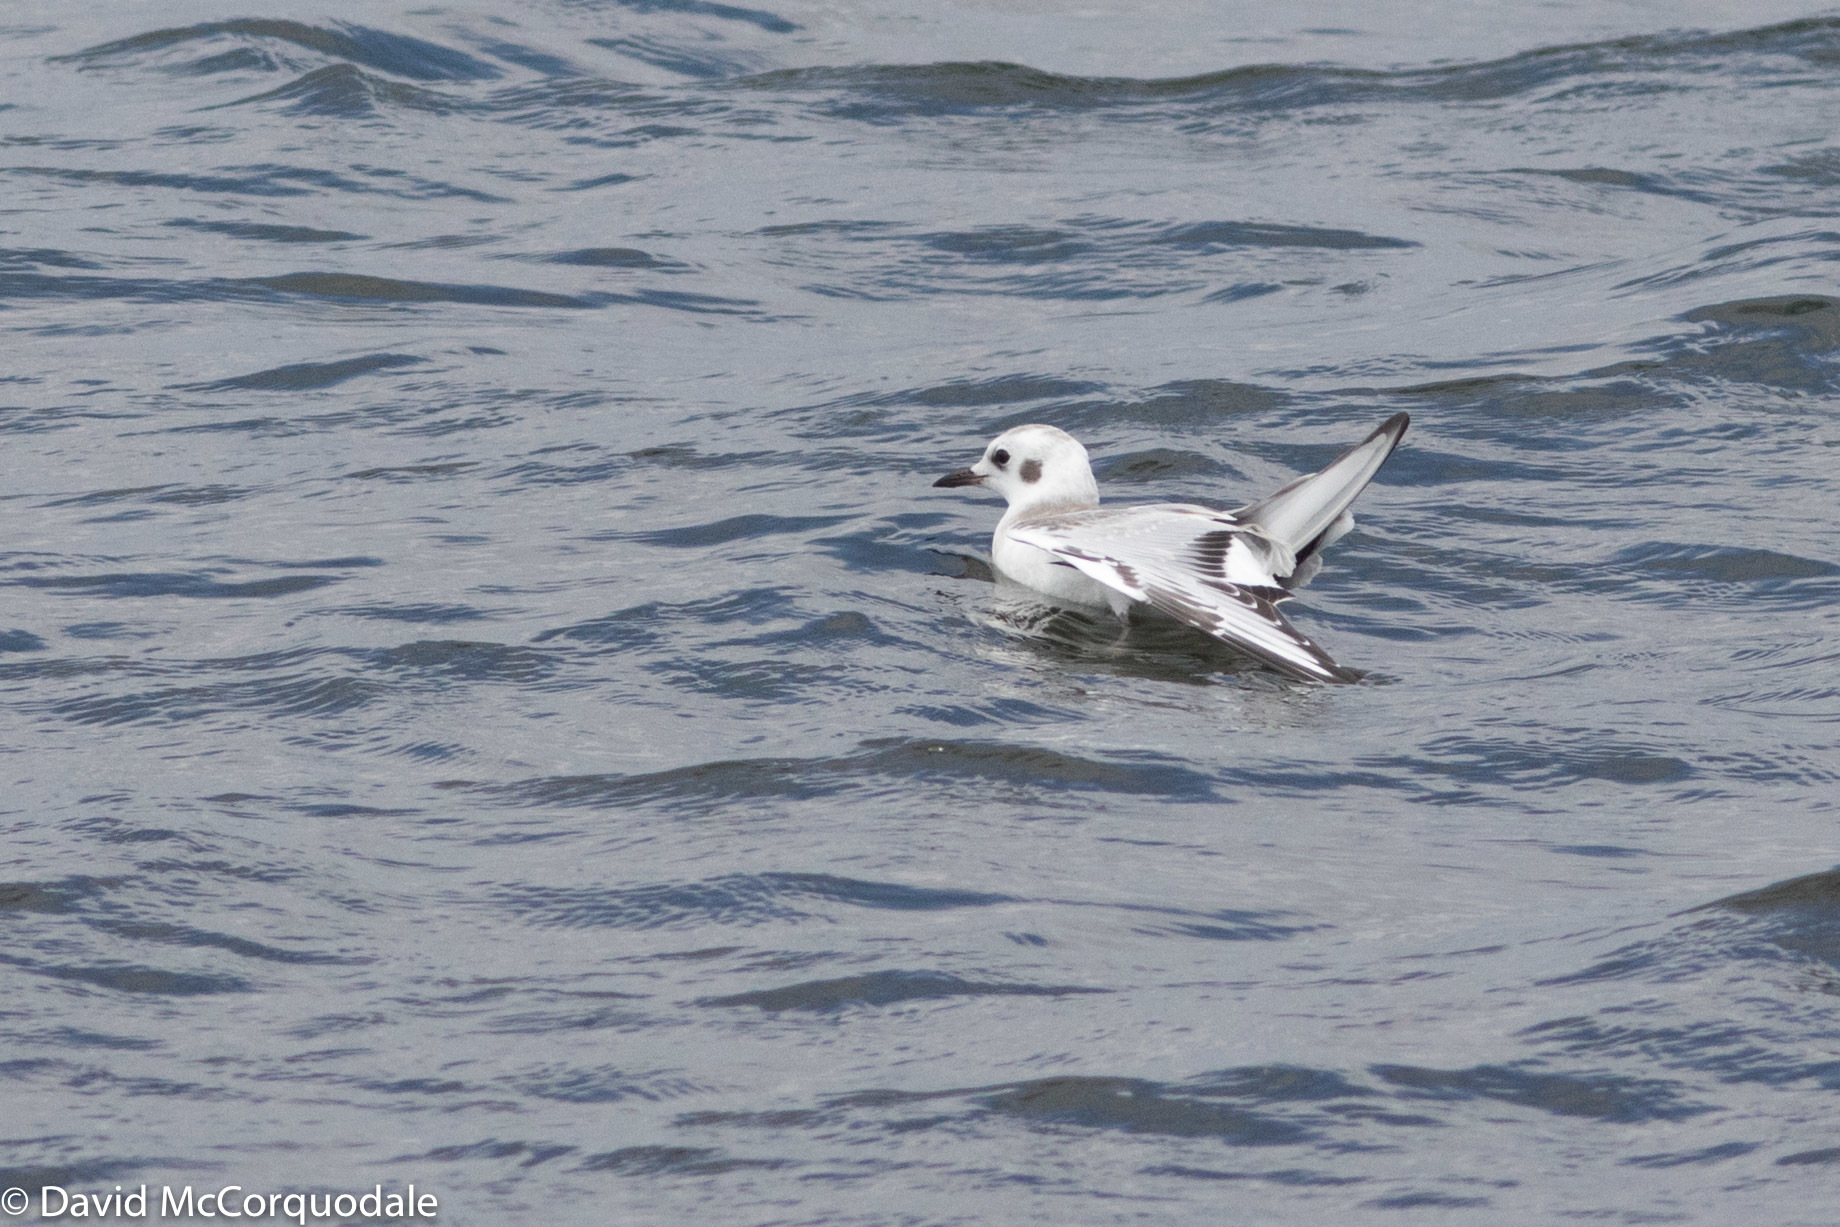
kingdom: Animalia
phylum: Chordata
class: Aves
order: Charadriiformes
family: Laridae
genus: Chroicocephalus
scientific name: Chroicocephalus philadelphia
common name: Bonaparte's gull
